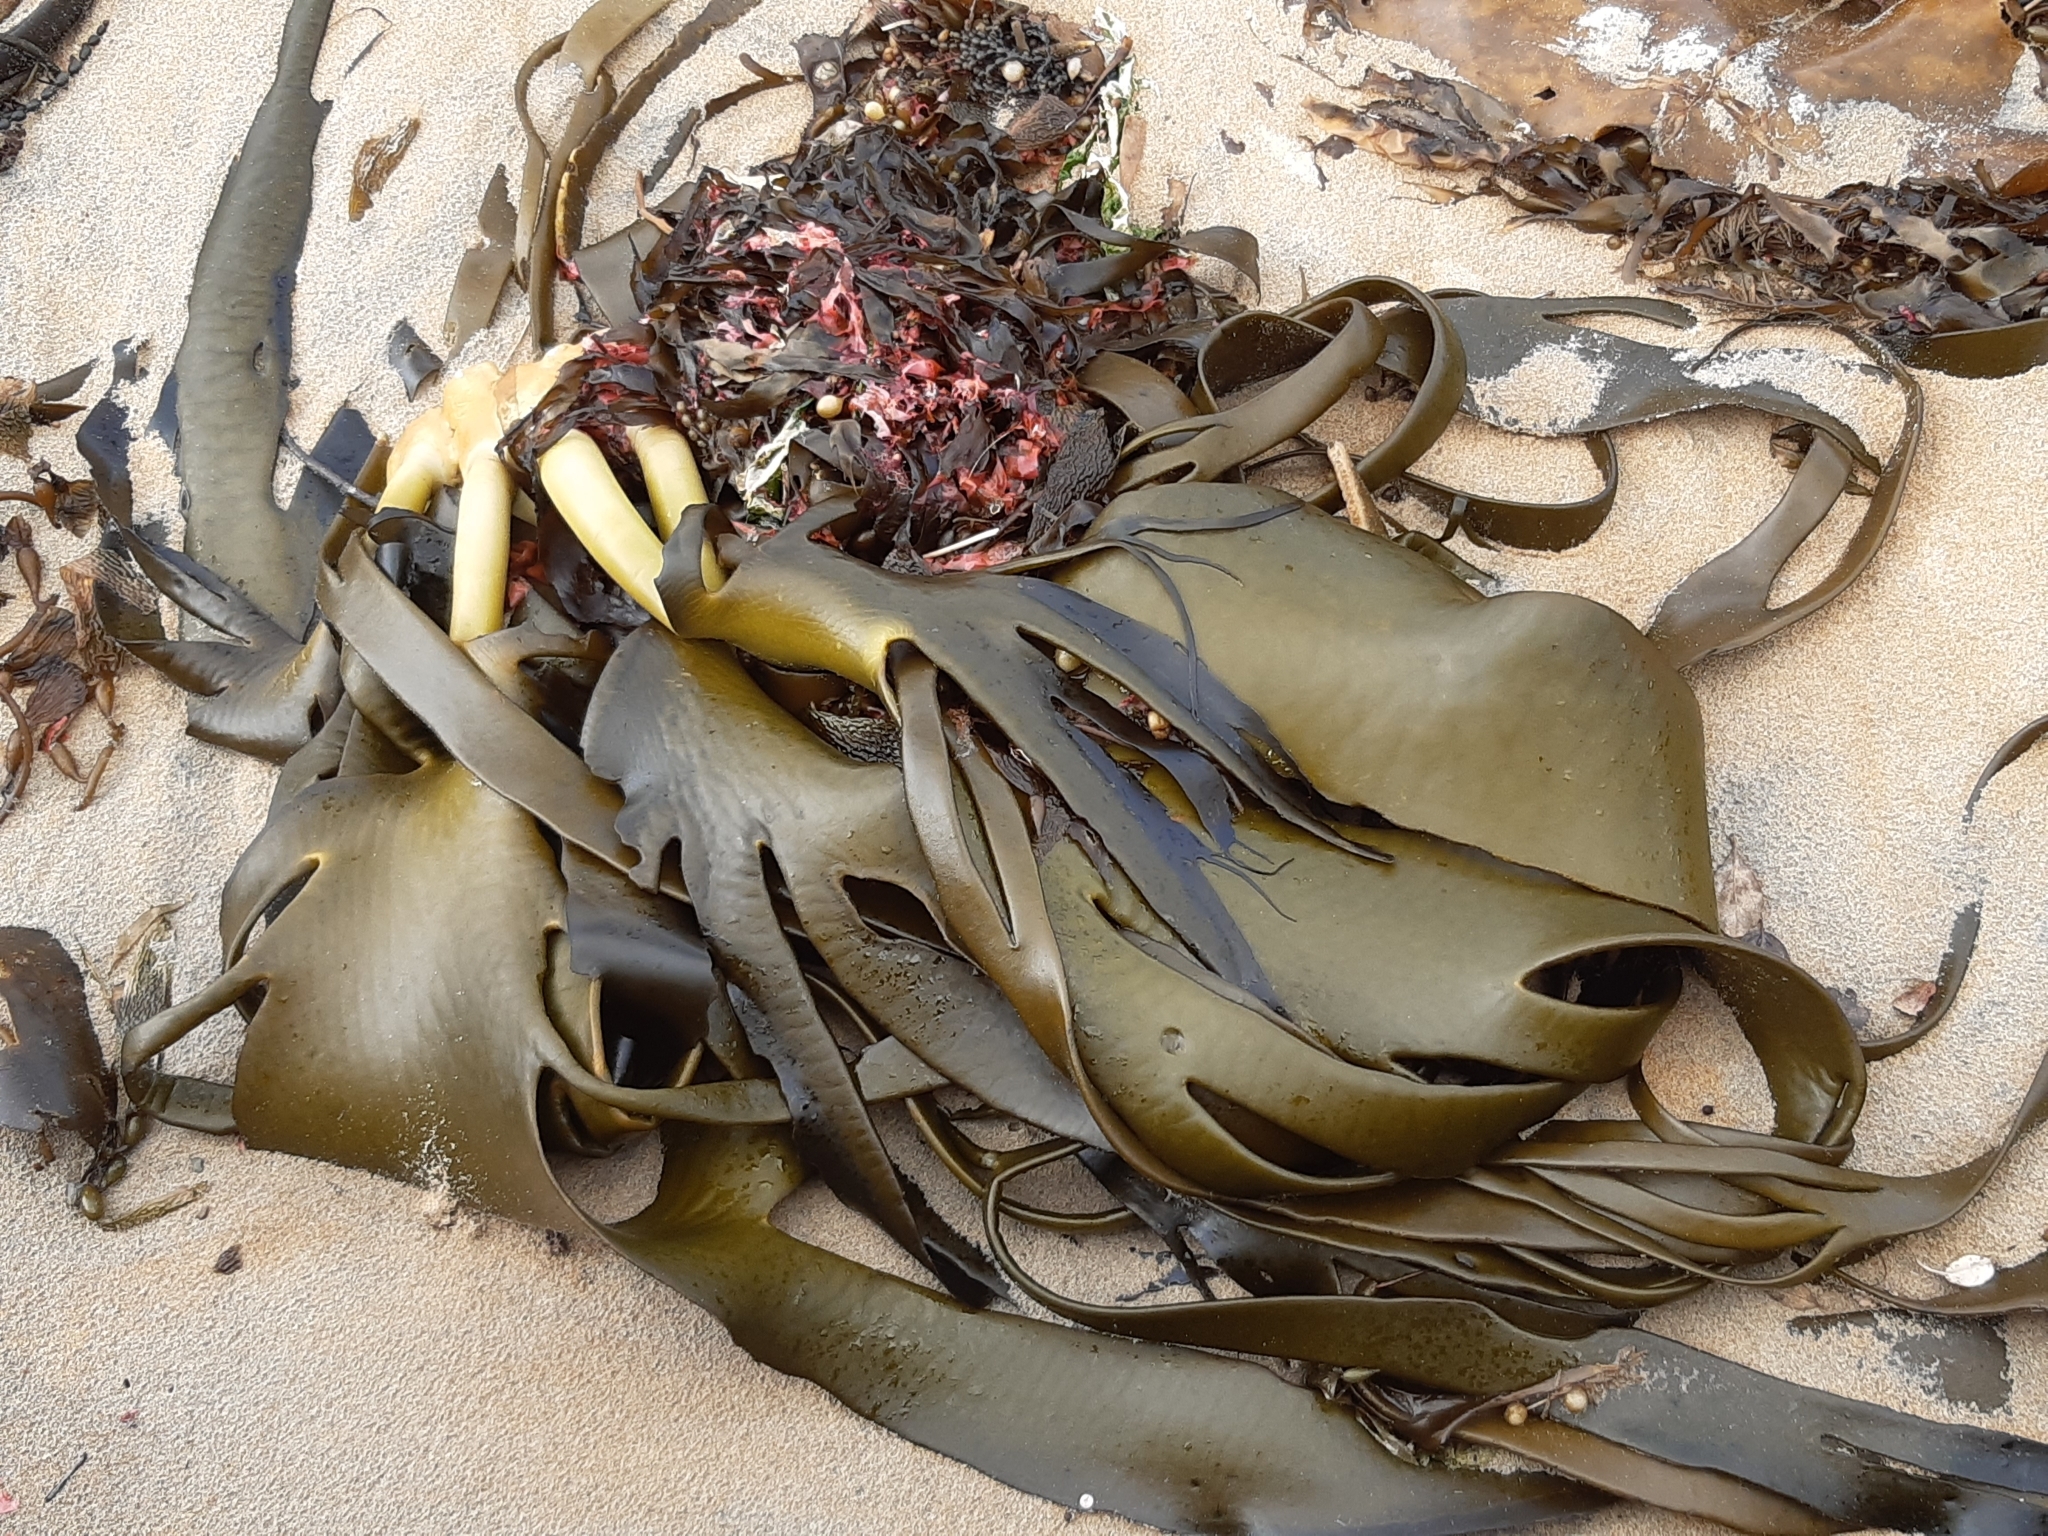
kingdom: Chromista
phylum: Ochrophyta
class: Phaeophyceae
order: Fucales
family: Durvillaeaceae
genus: Durvillaea
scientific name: Durvillaea antarctica
